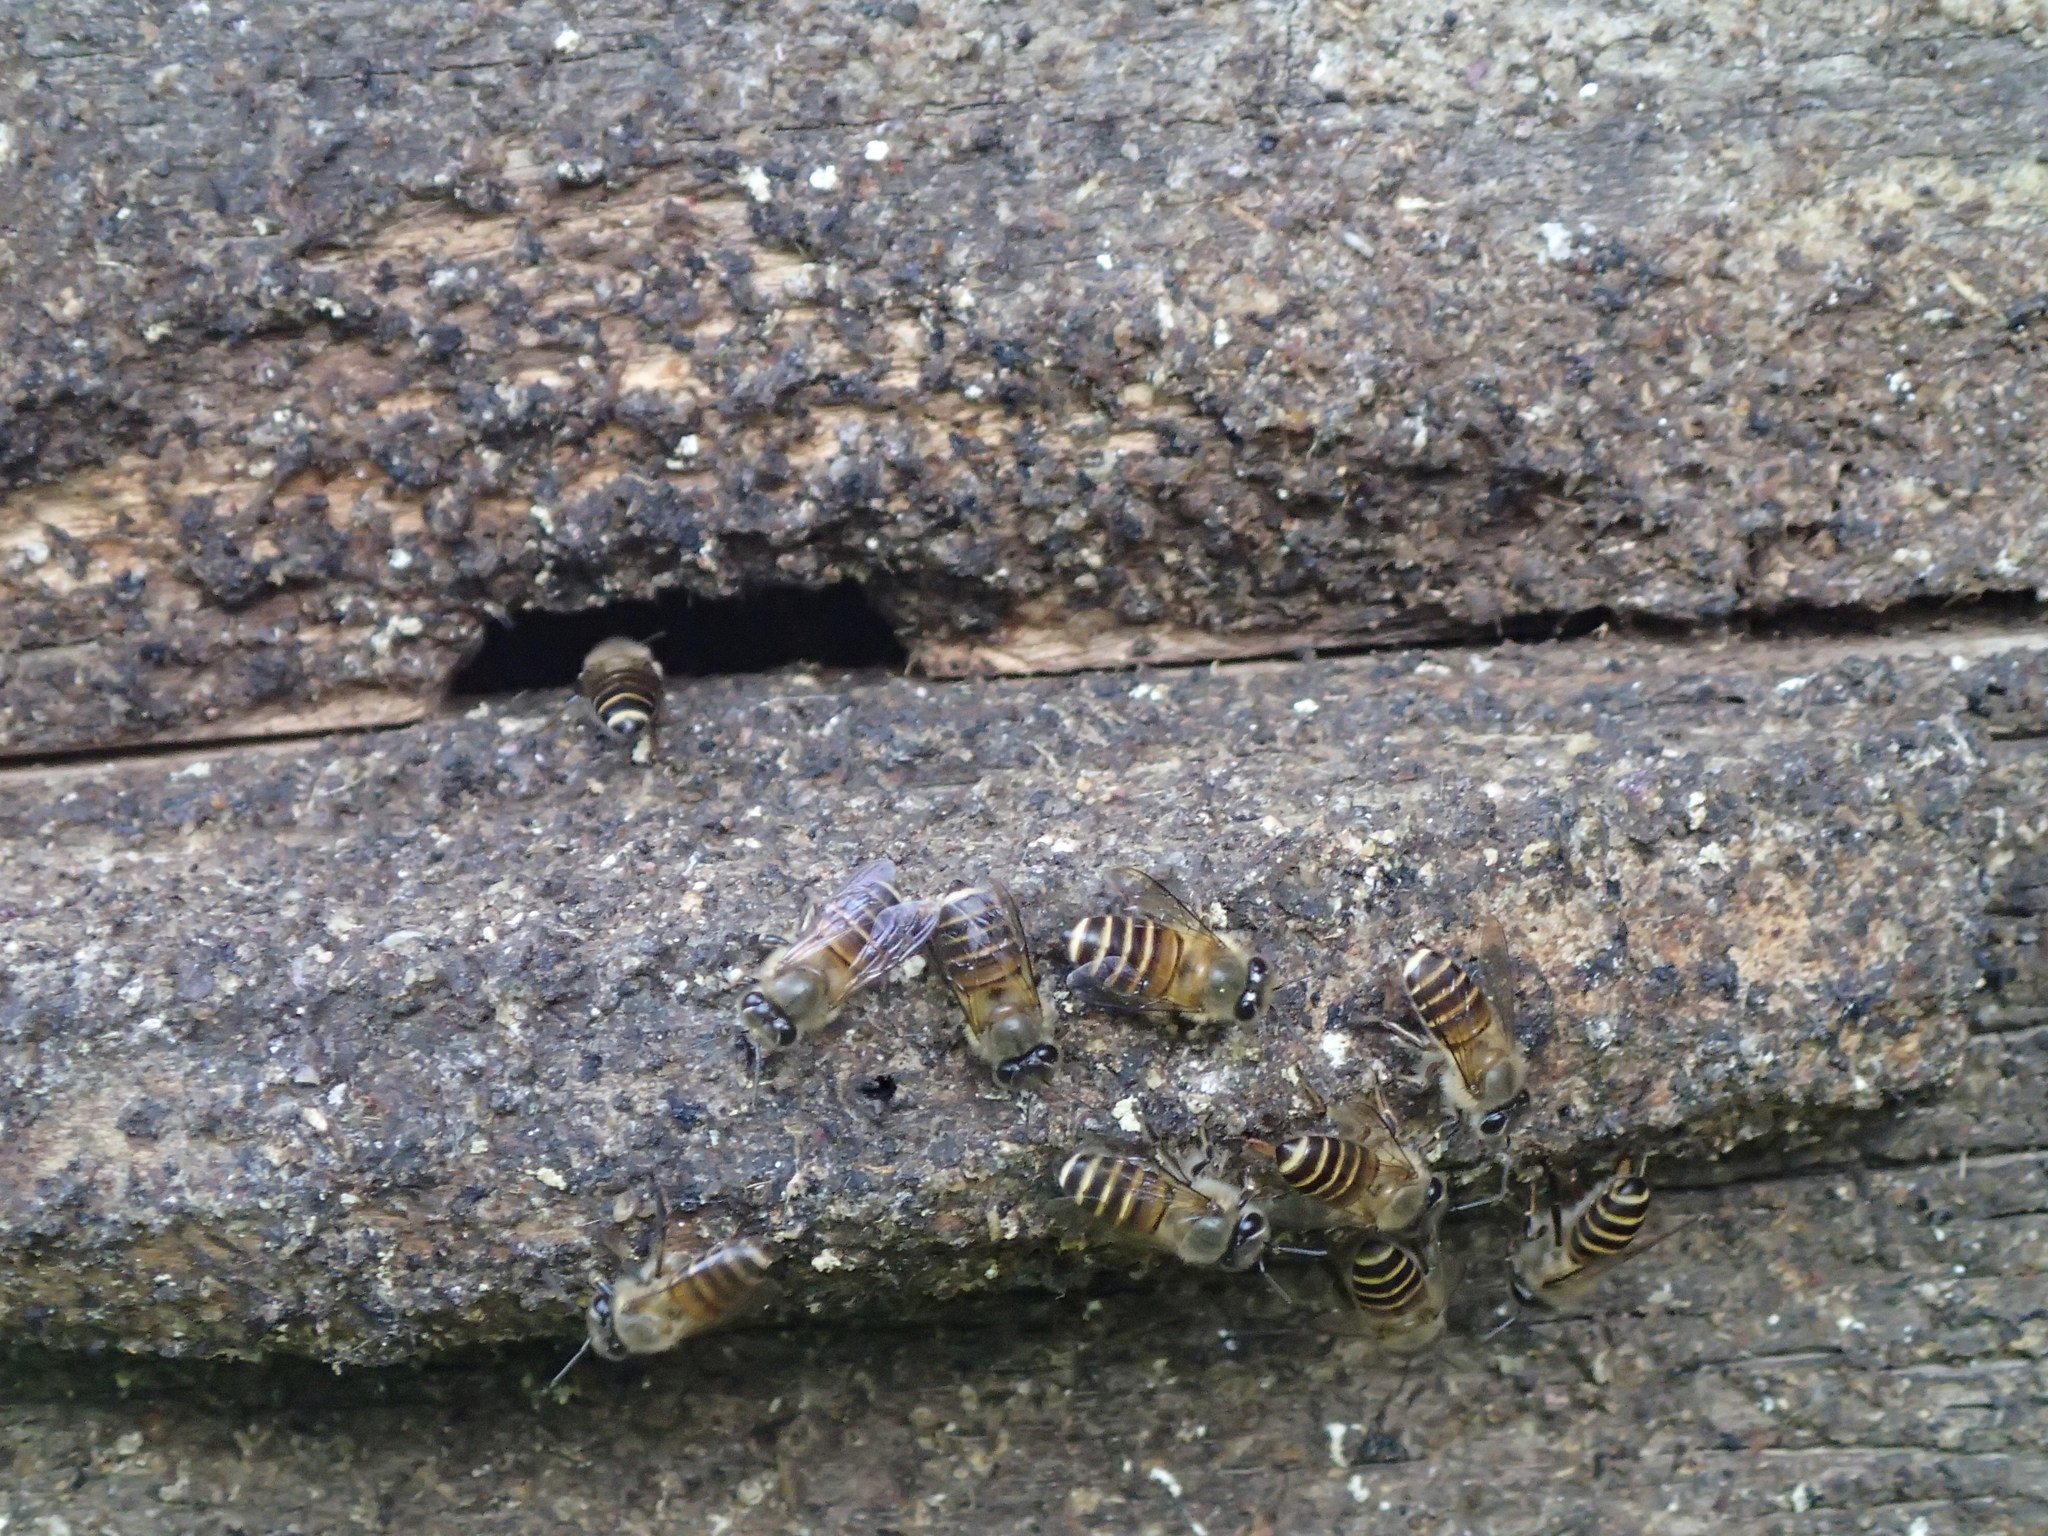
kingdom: Animalia
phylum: Arthropoda
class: Insecta
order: Hymenoptera
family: Apidae
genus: Apis
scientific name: Apis cerana
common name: Honey bee
